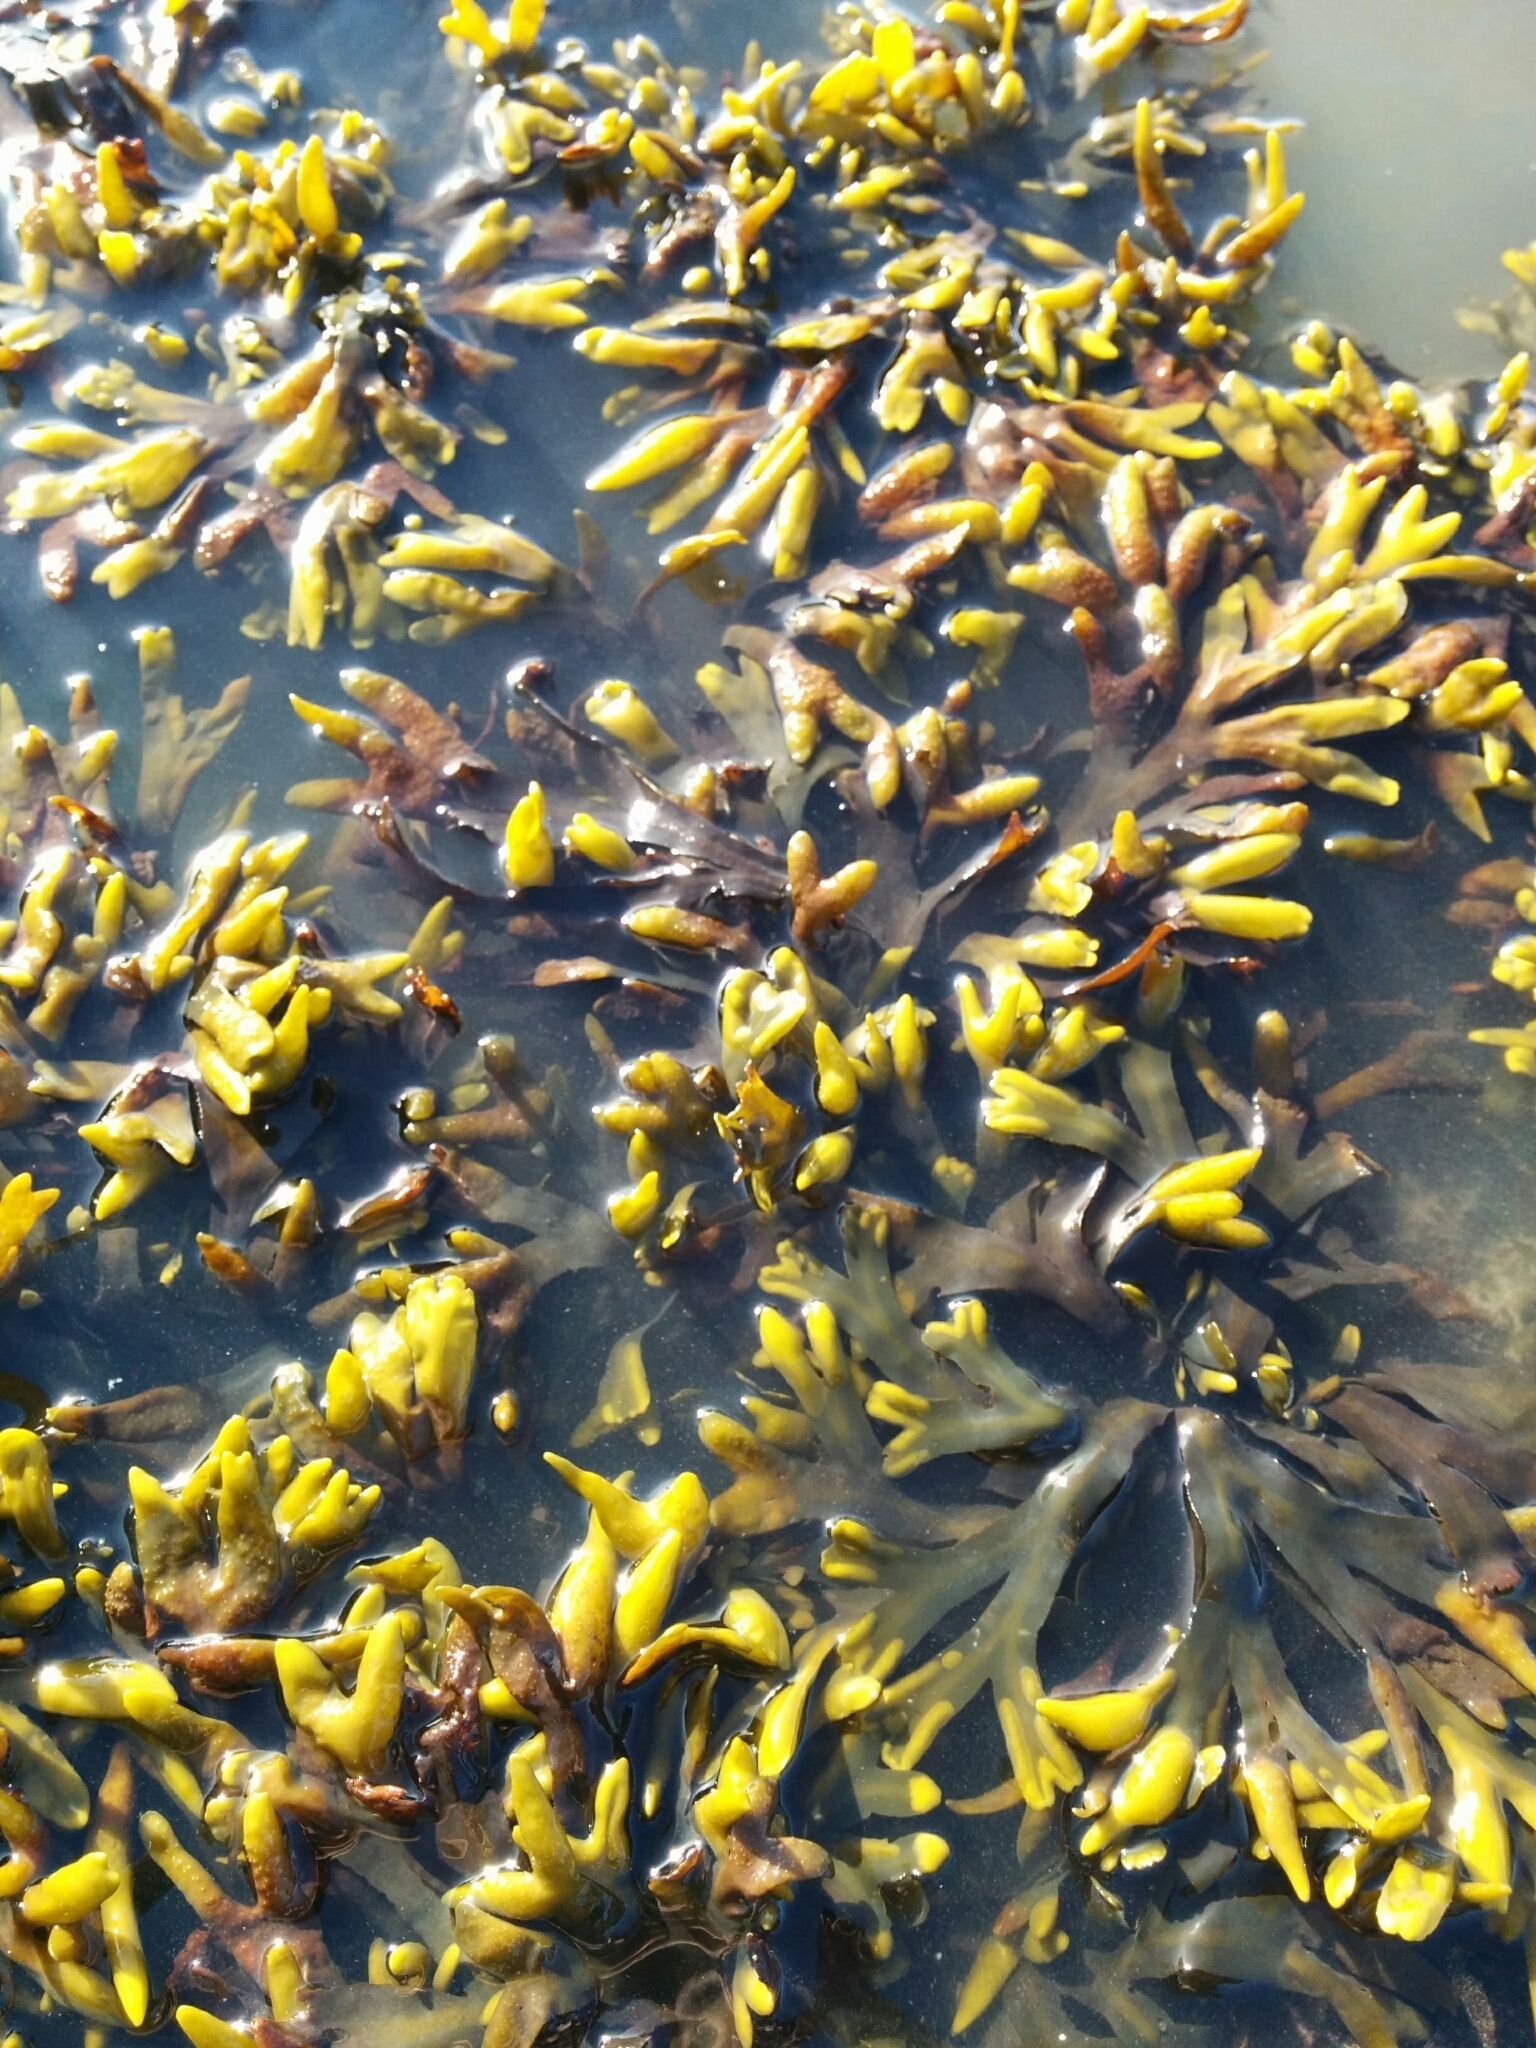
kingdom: Chromista
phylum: Ochrophyta
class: Phaeophyceae
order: Fucales
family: Fucaceae
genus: Fucus
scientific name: Fucus distichus
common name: Rockweed
